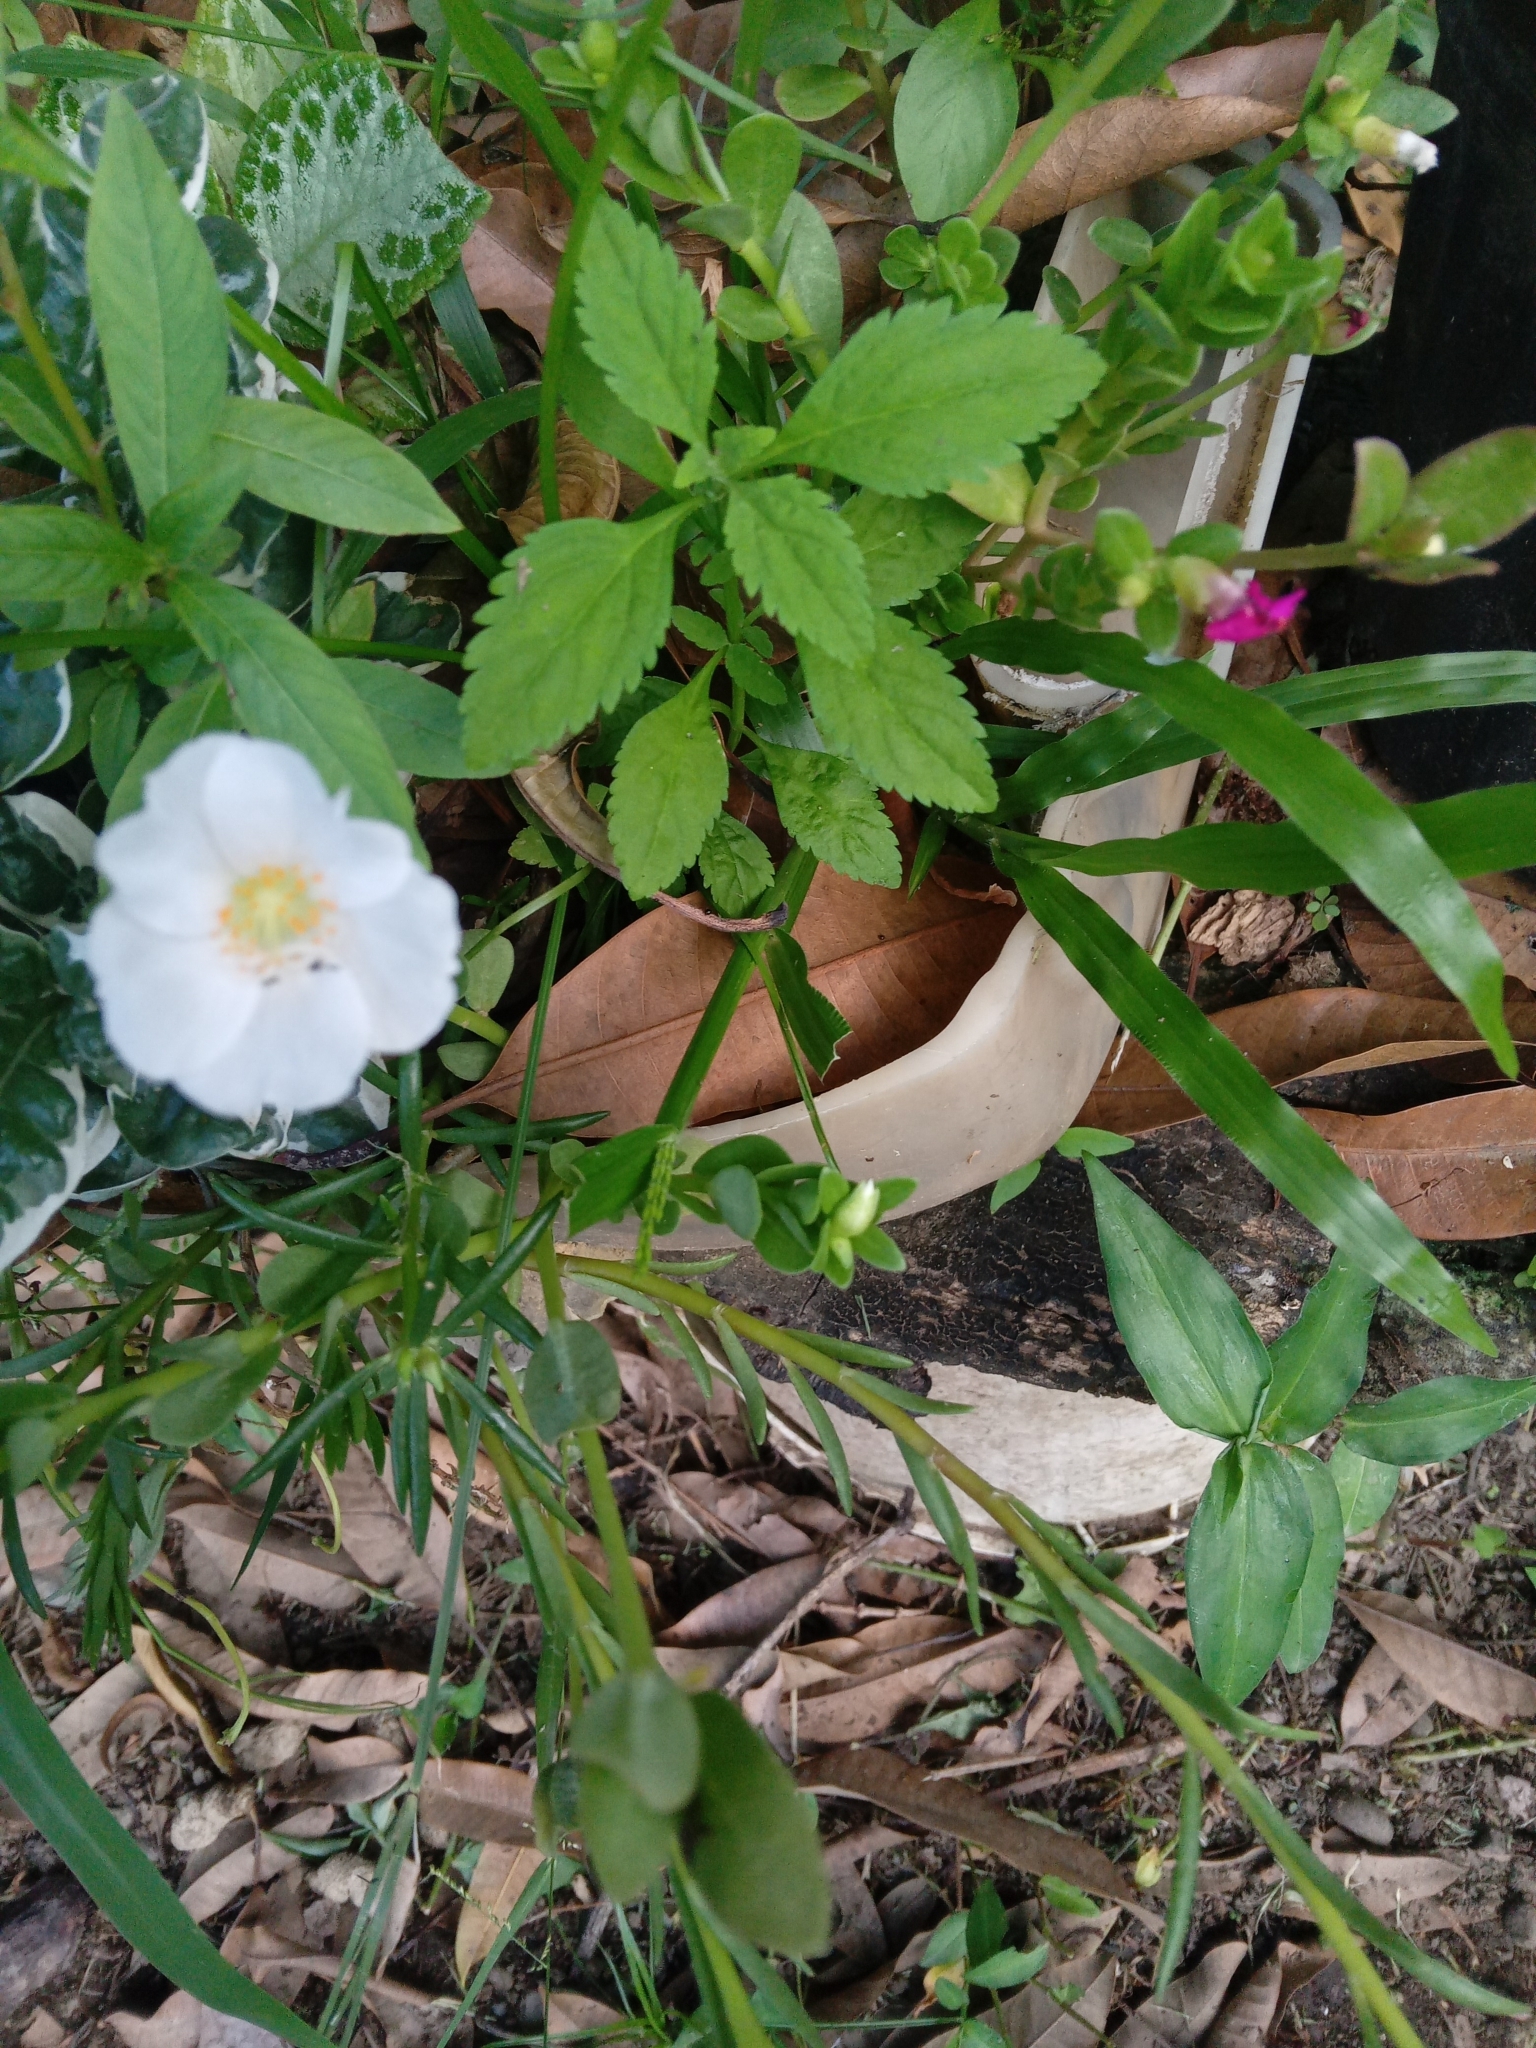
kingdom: Plantae
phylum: Tracheophyta
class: Magnoliopsida
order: Caryophyllales
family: Portulacaceae
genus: Portulaca
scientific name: Portulaca umbraticola
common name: Wingpod purslane
